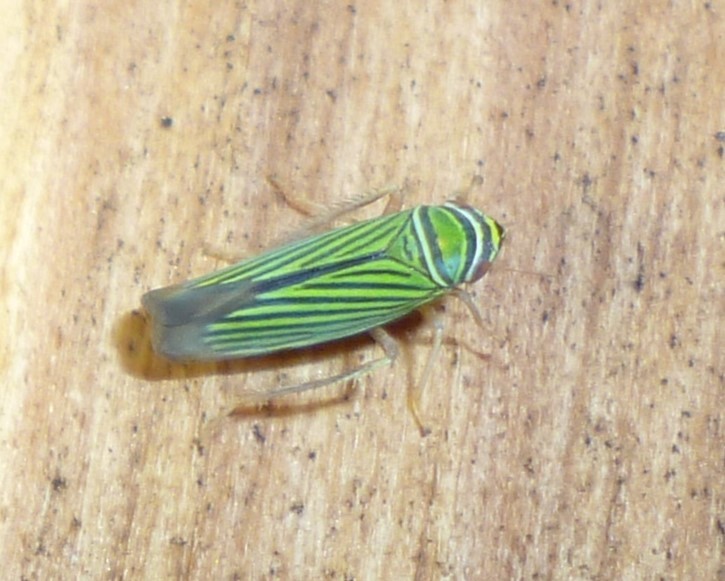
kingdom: Animalia
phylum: Arthropoda
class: Insecta
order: Hemiptera
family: Cicadellidae
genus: Tylozygus
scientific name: Tylozygus bifidus
